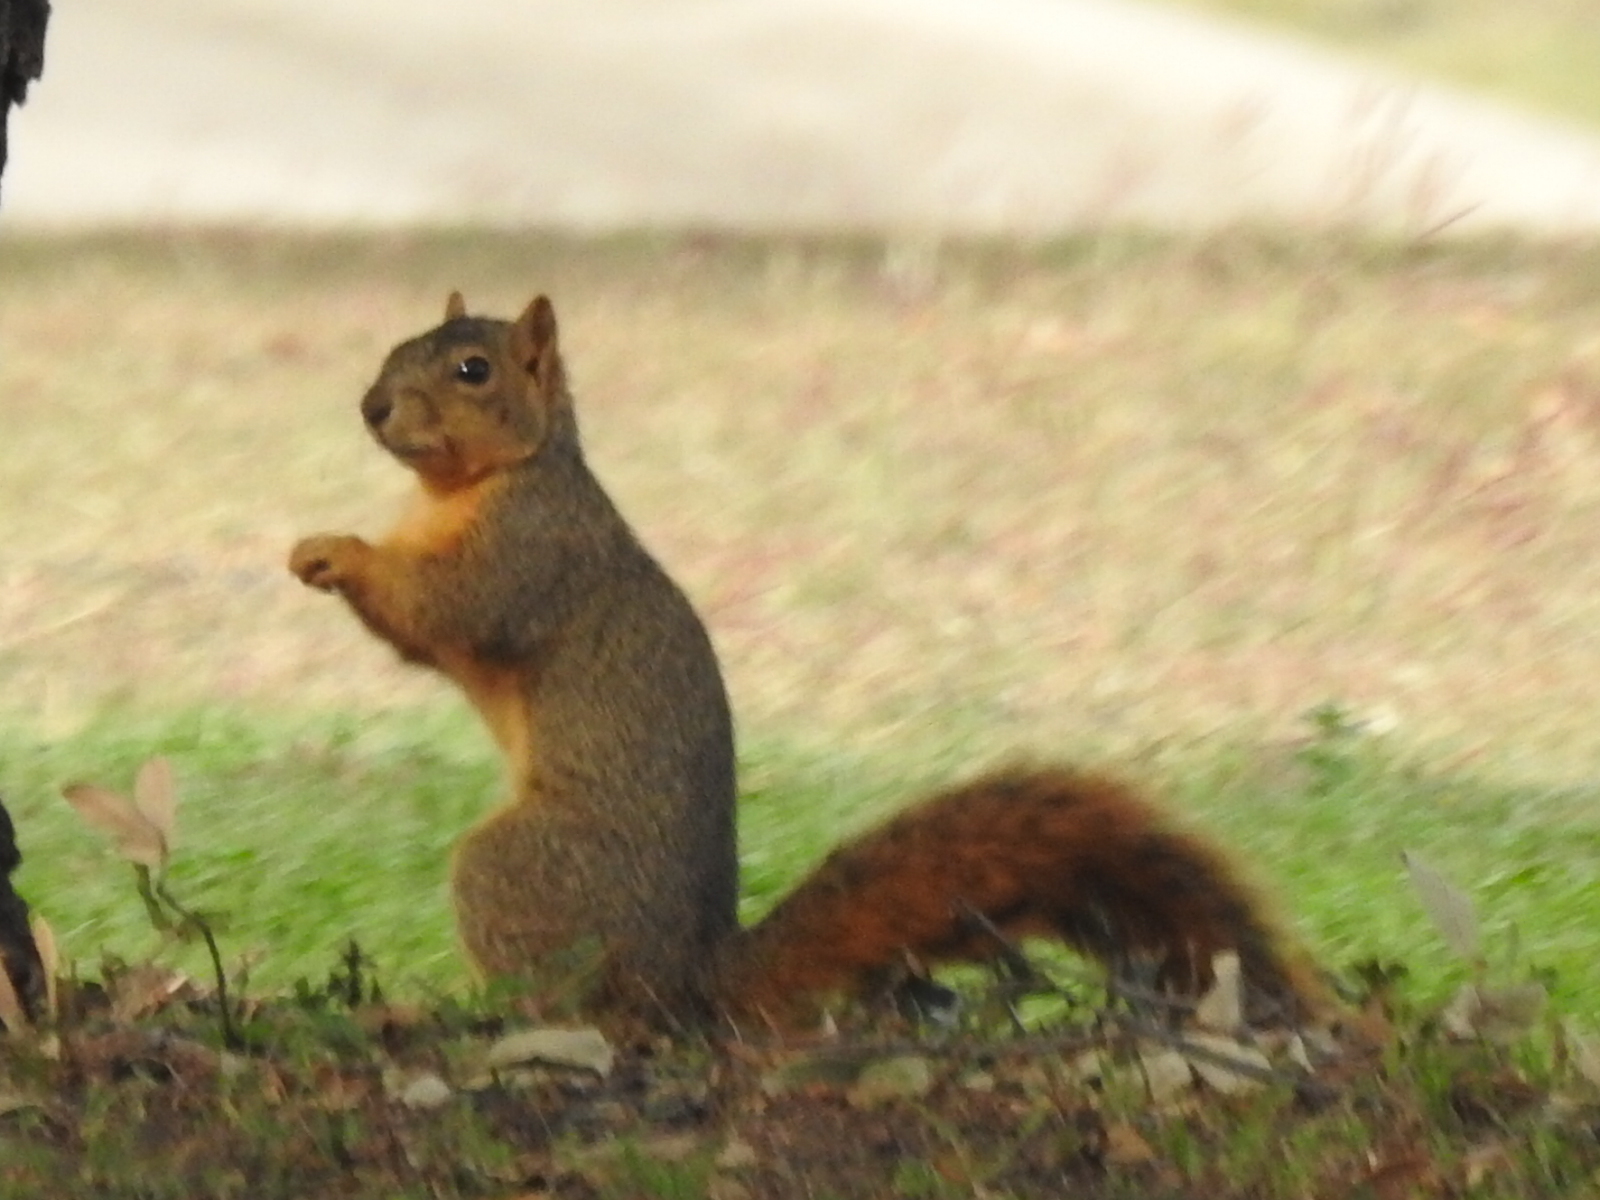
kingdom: Animalia
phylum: Chordata
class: Mammalia
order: Rodentia
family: Sciuridae
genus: Sciurus
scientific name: Sciurus niger
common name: Fox squirrel
